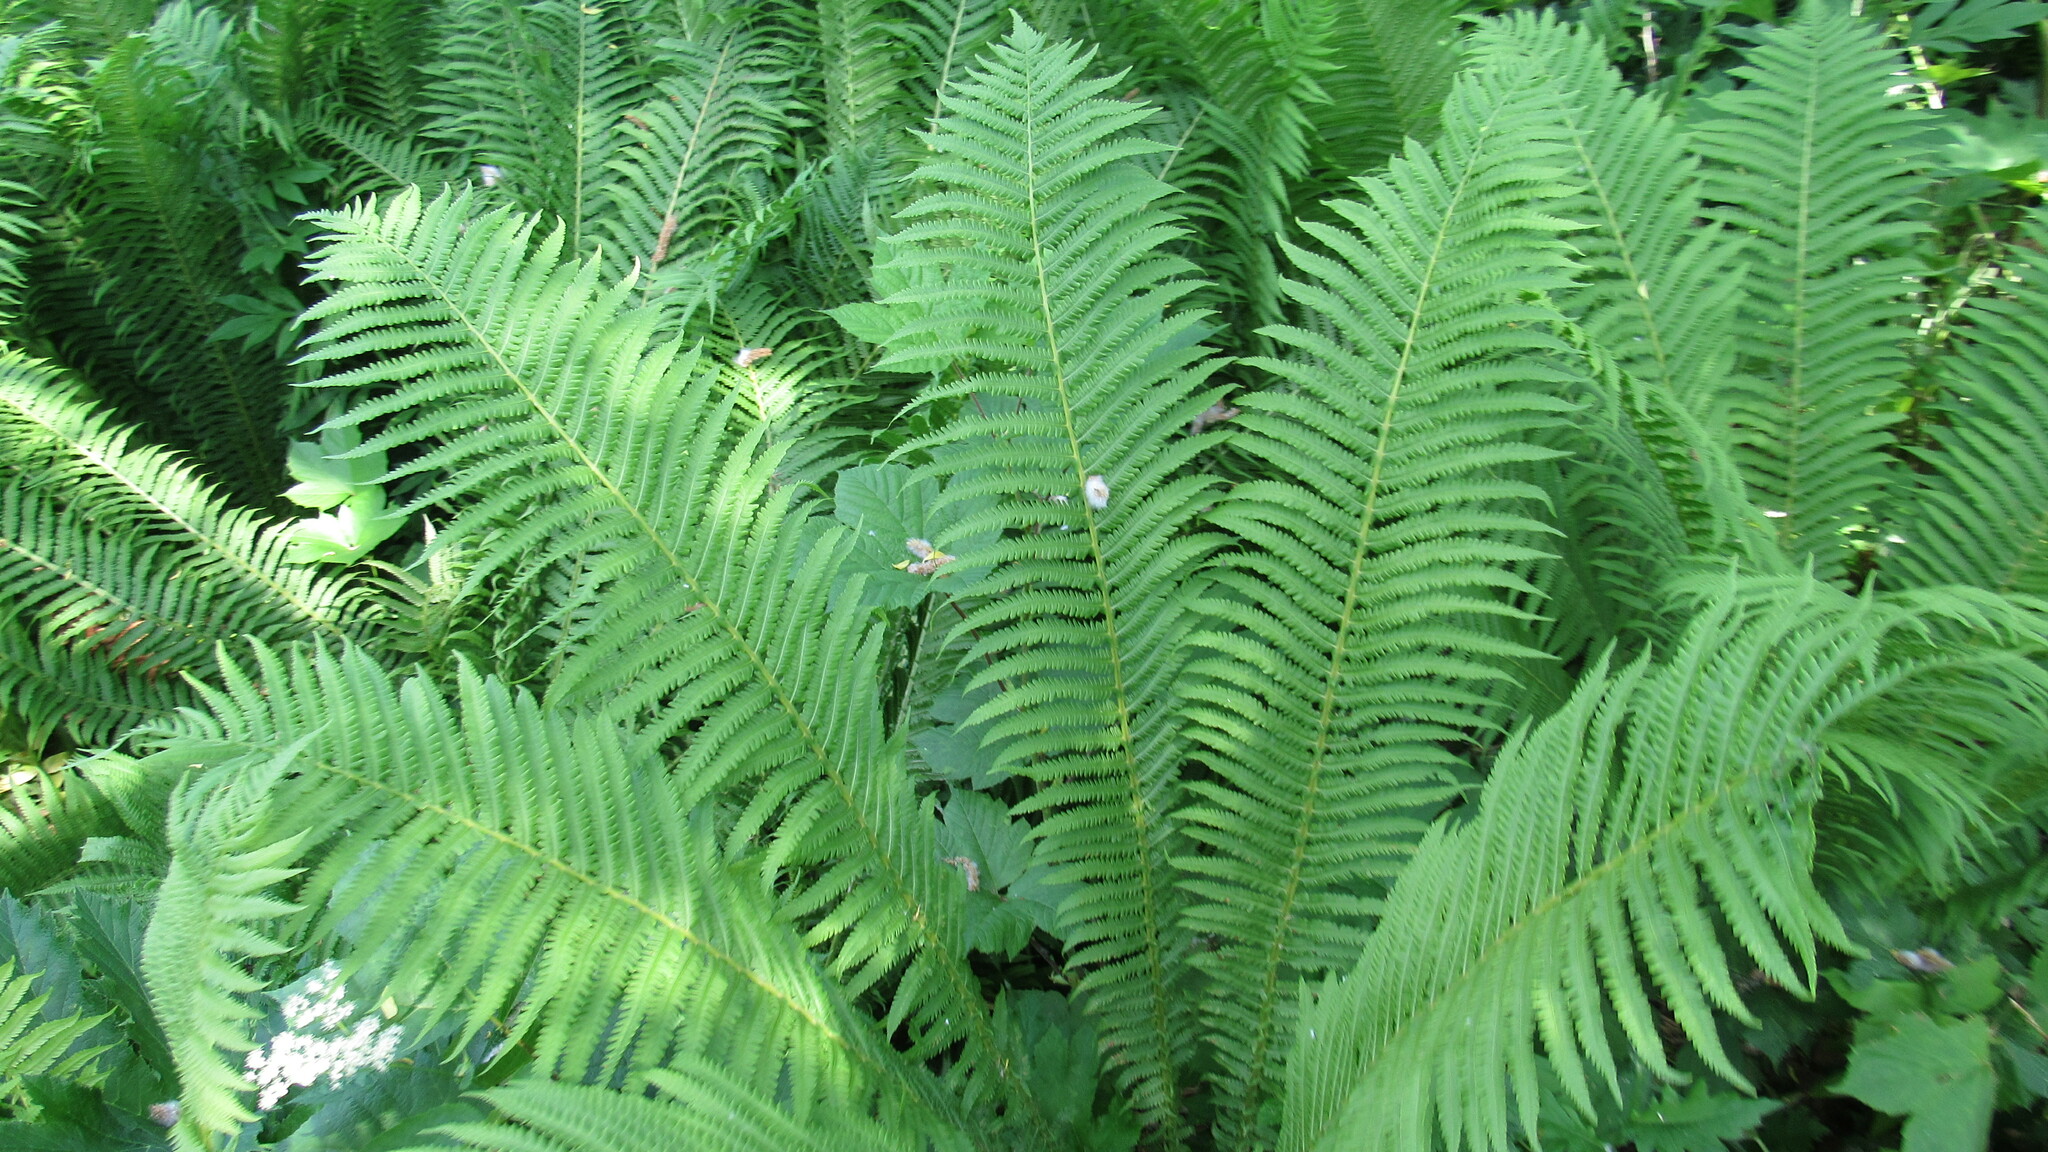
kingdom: Plantae
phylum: Tracheophyta
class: Polypodiopsida
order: Polypodiales
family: Onocleaceae
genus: Matteuccia
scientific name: Matteuccia struthiopteris
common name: Ostrich fern
